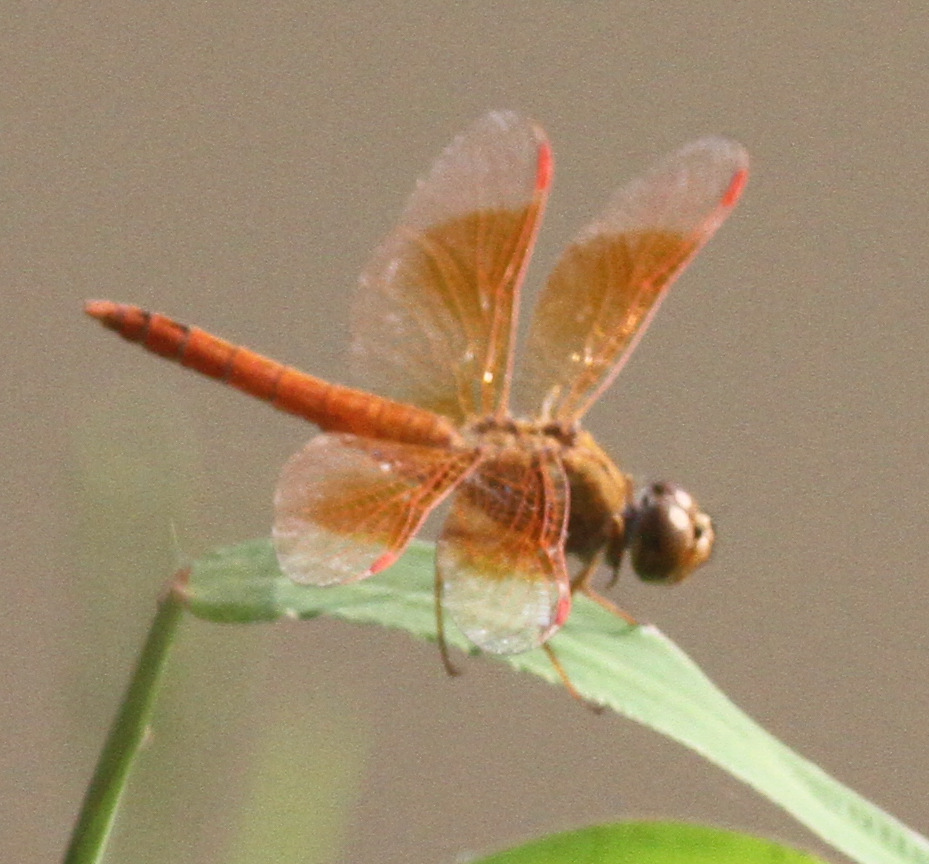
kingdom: Animalia
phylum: Arthropoda
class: Insecta
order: Odonata
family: Libellulidae
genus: Brachythemis
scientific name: Brachythemis contaminata
